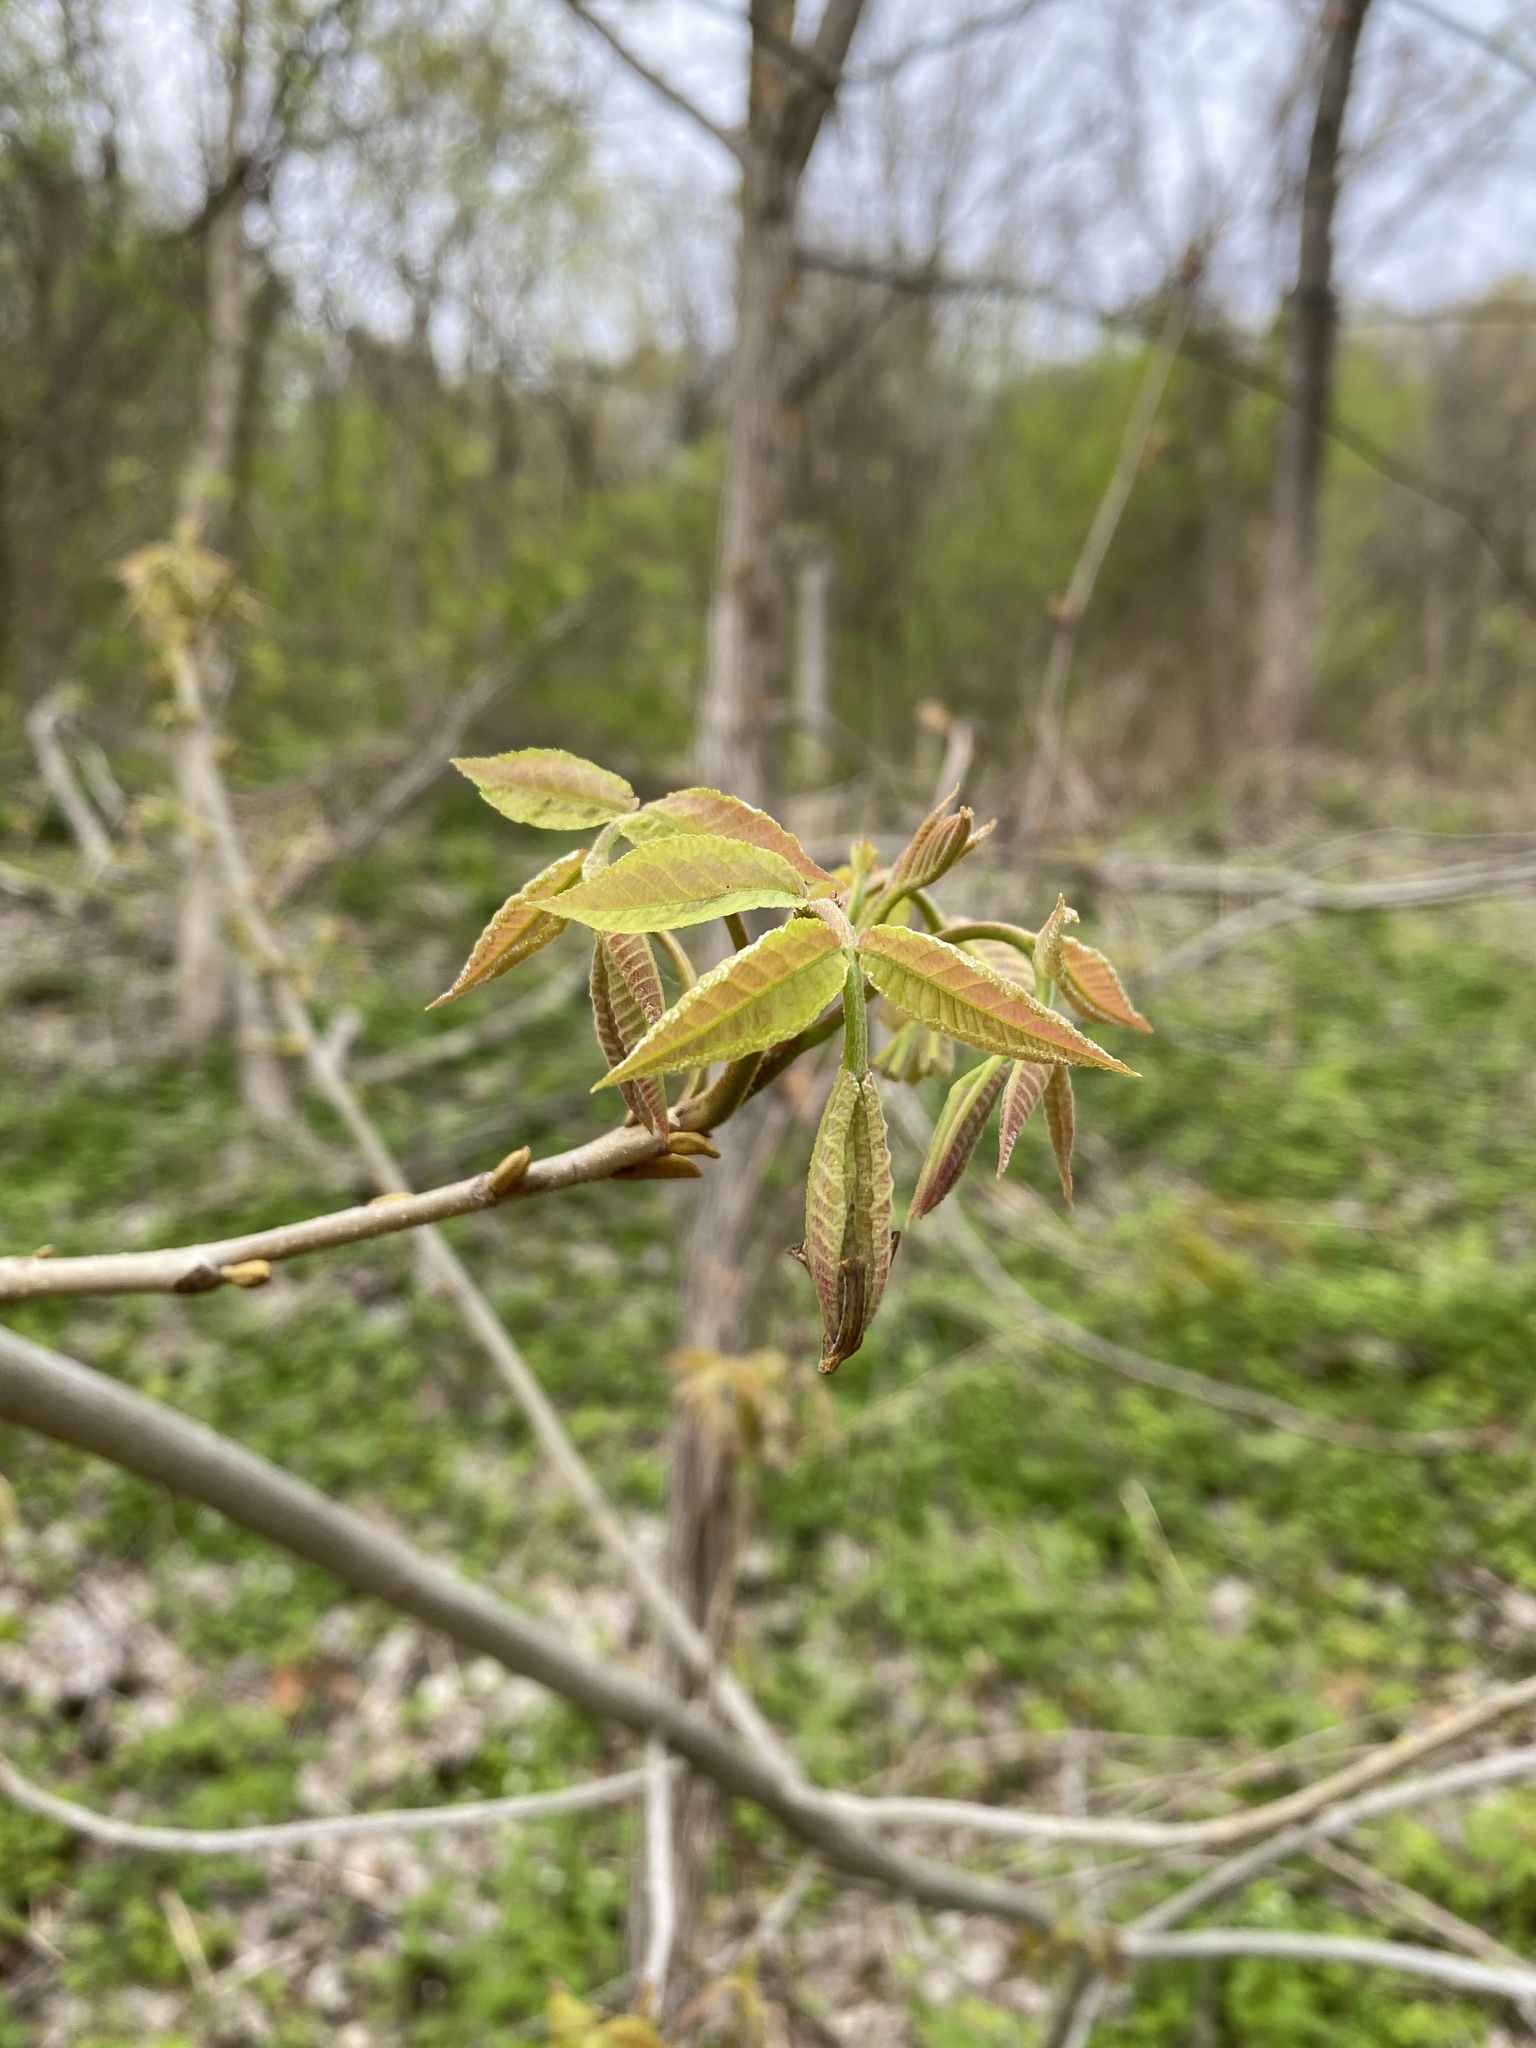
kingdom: Plantae
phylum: Tracheophyta
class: Magnoliopsida
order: Fagales
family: Juglandaceae
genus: Carya
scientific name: Carya cordiformis
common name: Bitternut hickory
